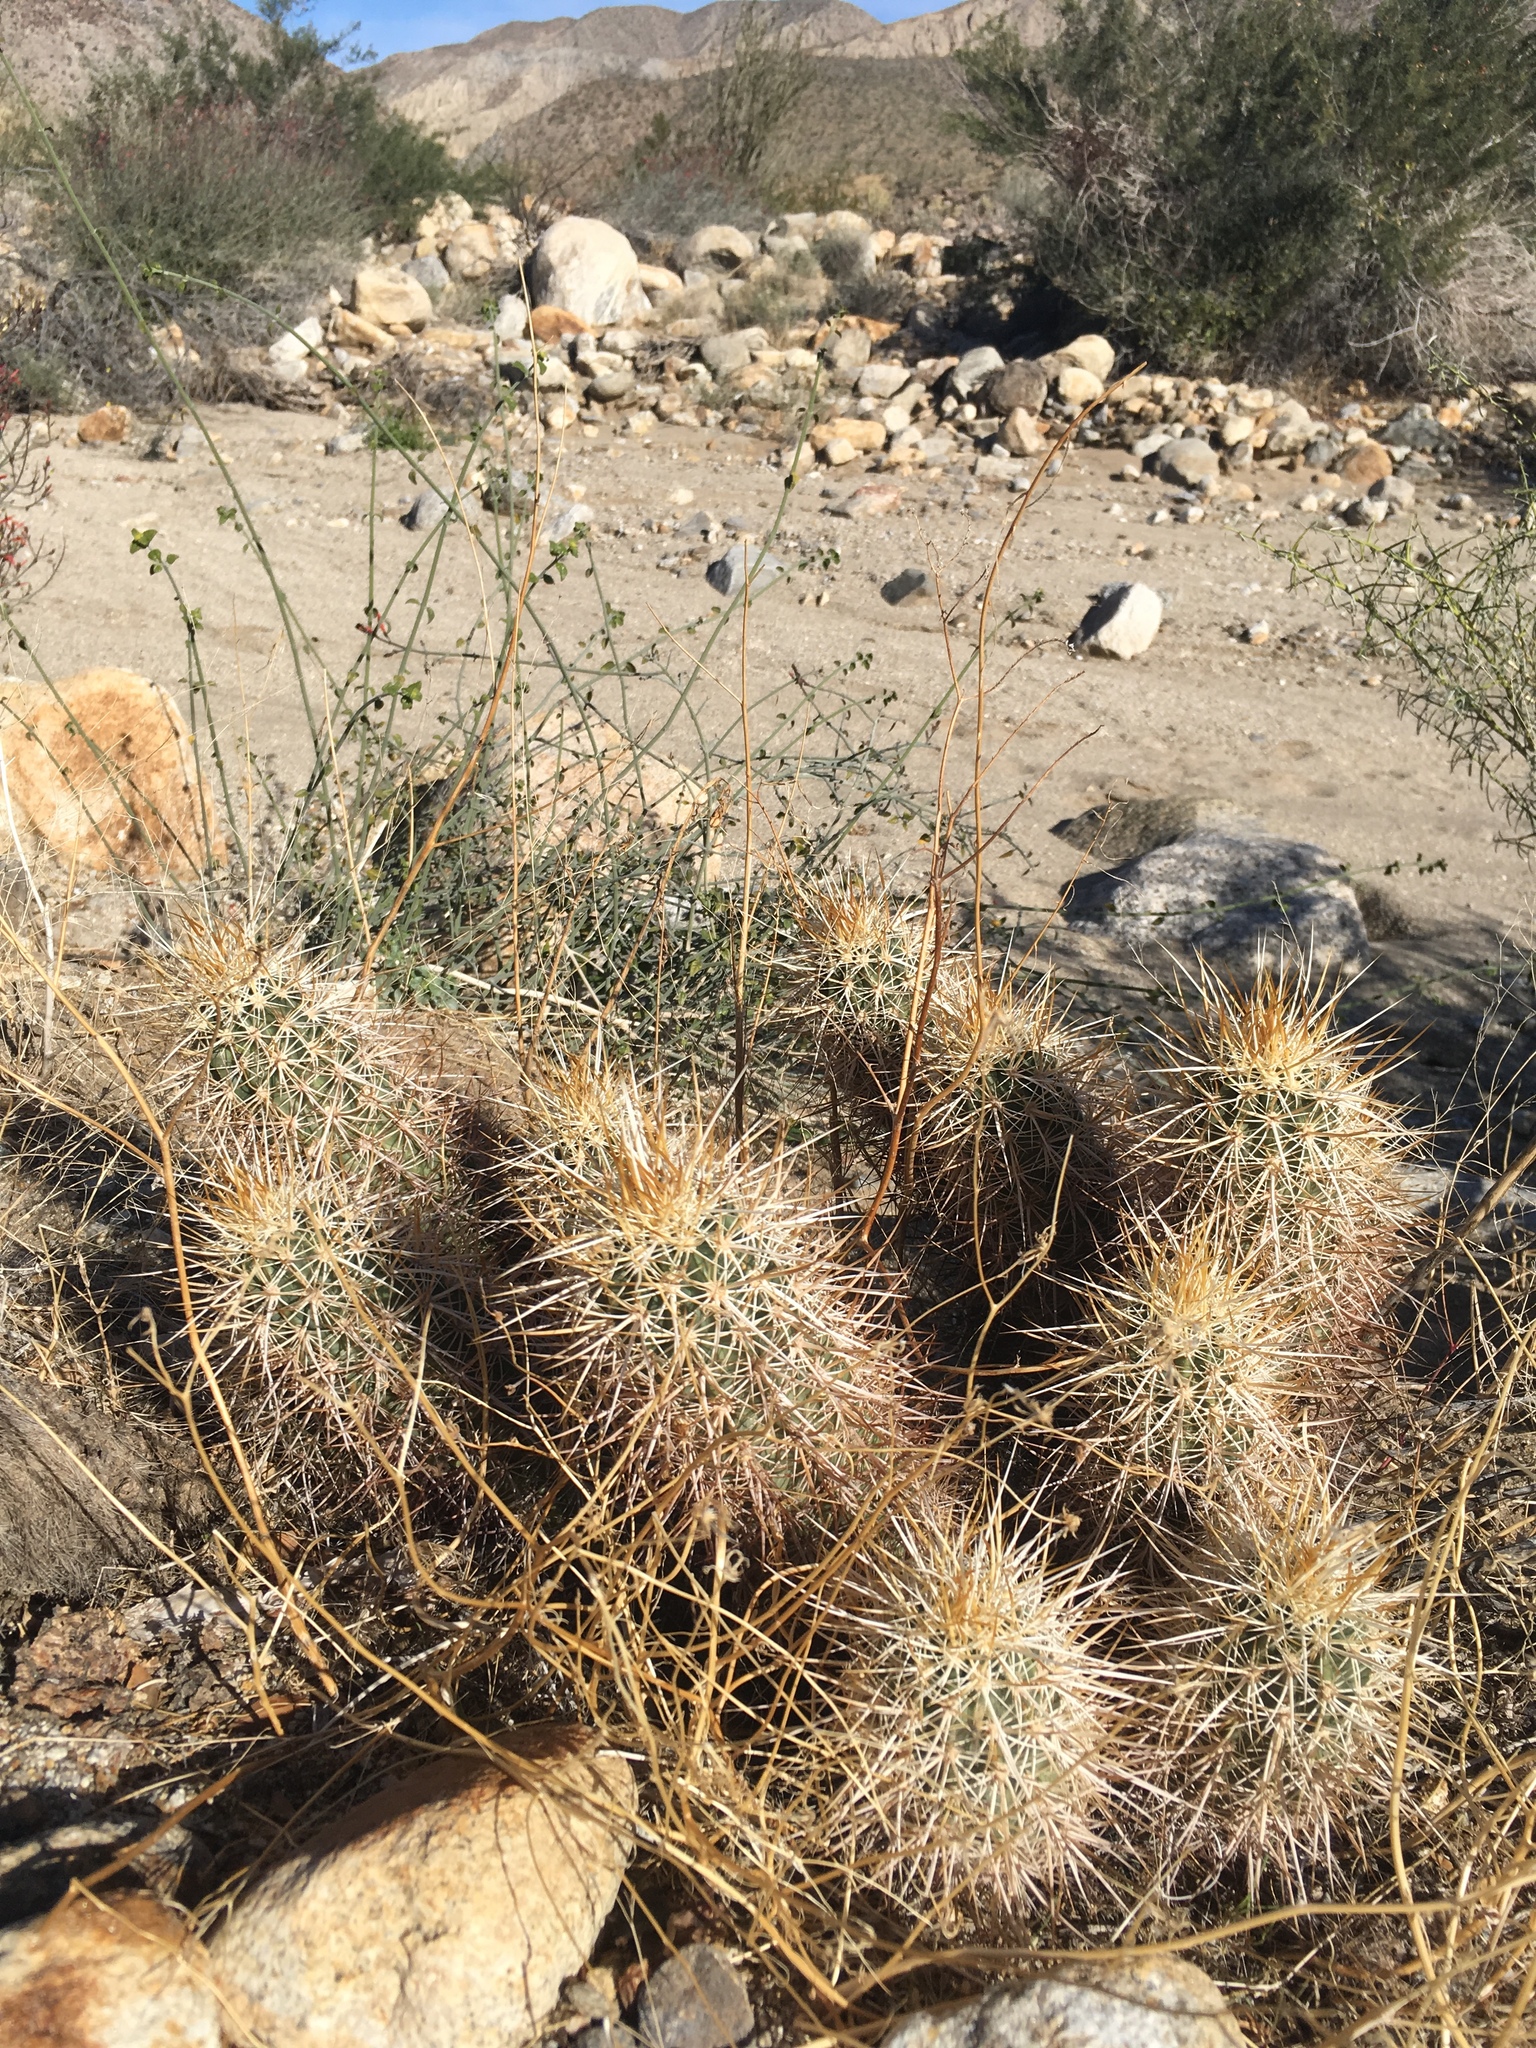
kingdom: Plantae
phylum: Tracheophyta
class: Magnoliopsida
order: Caryophyllales
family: Cactaceae
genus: Echinocereus
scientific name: Echinocereus engelmannii
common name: Engelmann's hedgehog cactus
